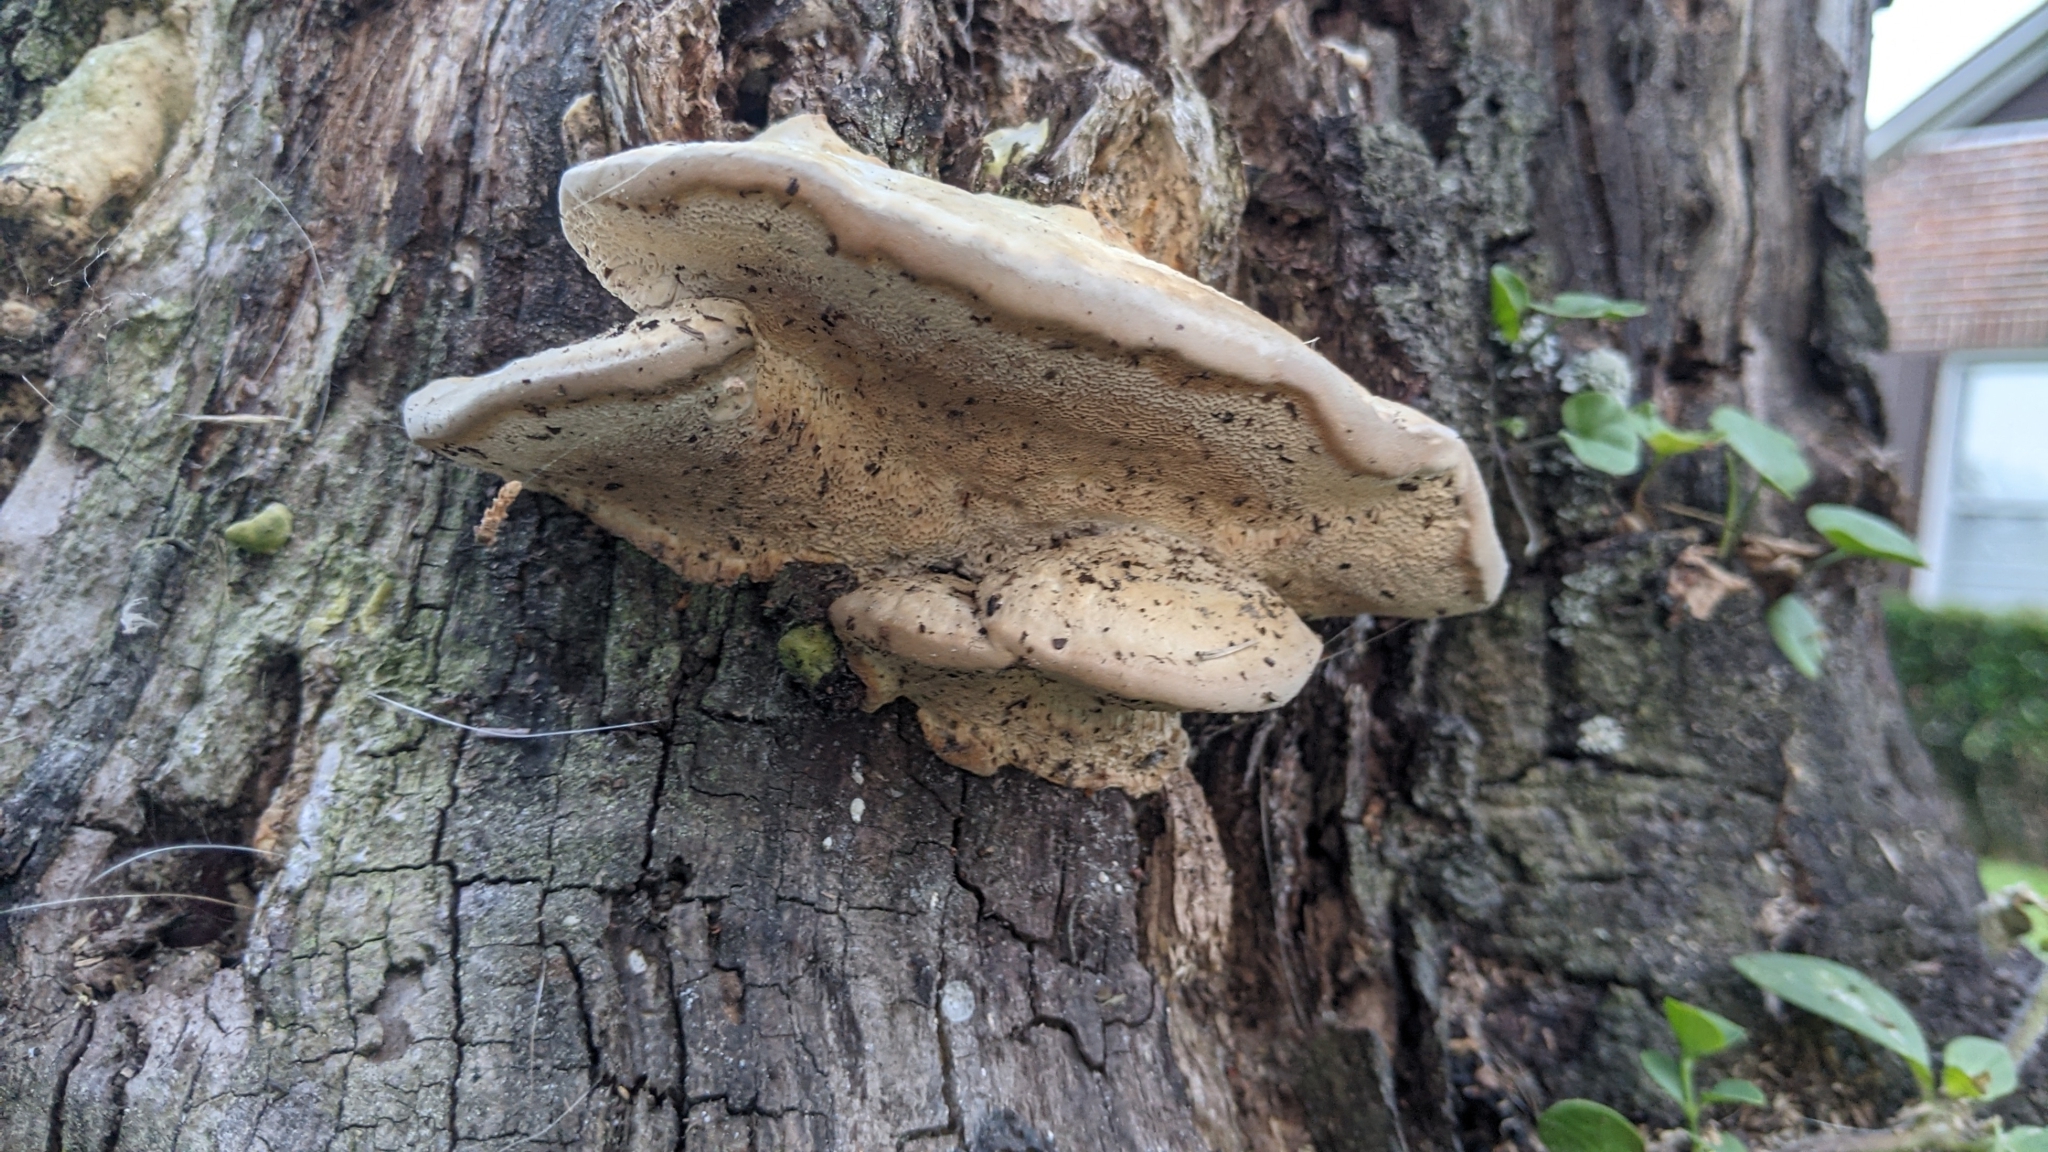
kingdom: Fungi
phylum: Basidiomycota
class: Agaricomycetes
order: Polyporales
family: Polyporaceae
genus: Trametes
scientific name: Trametes lactinea
